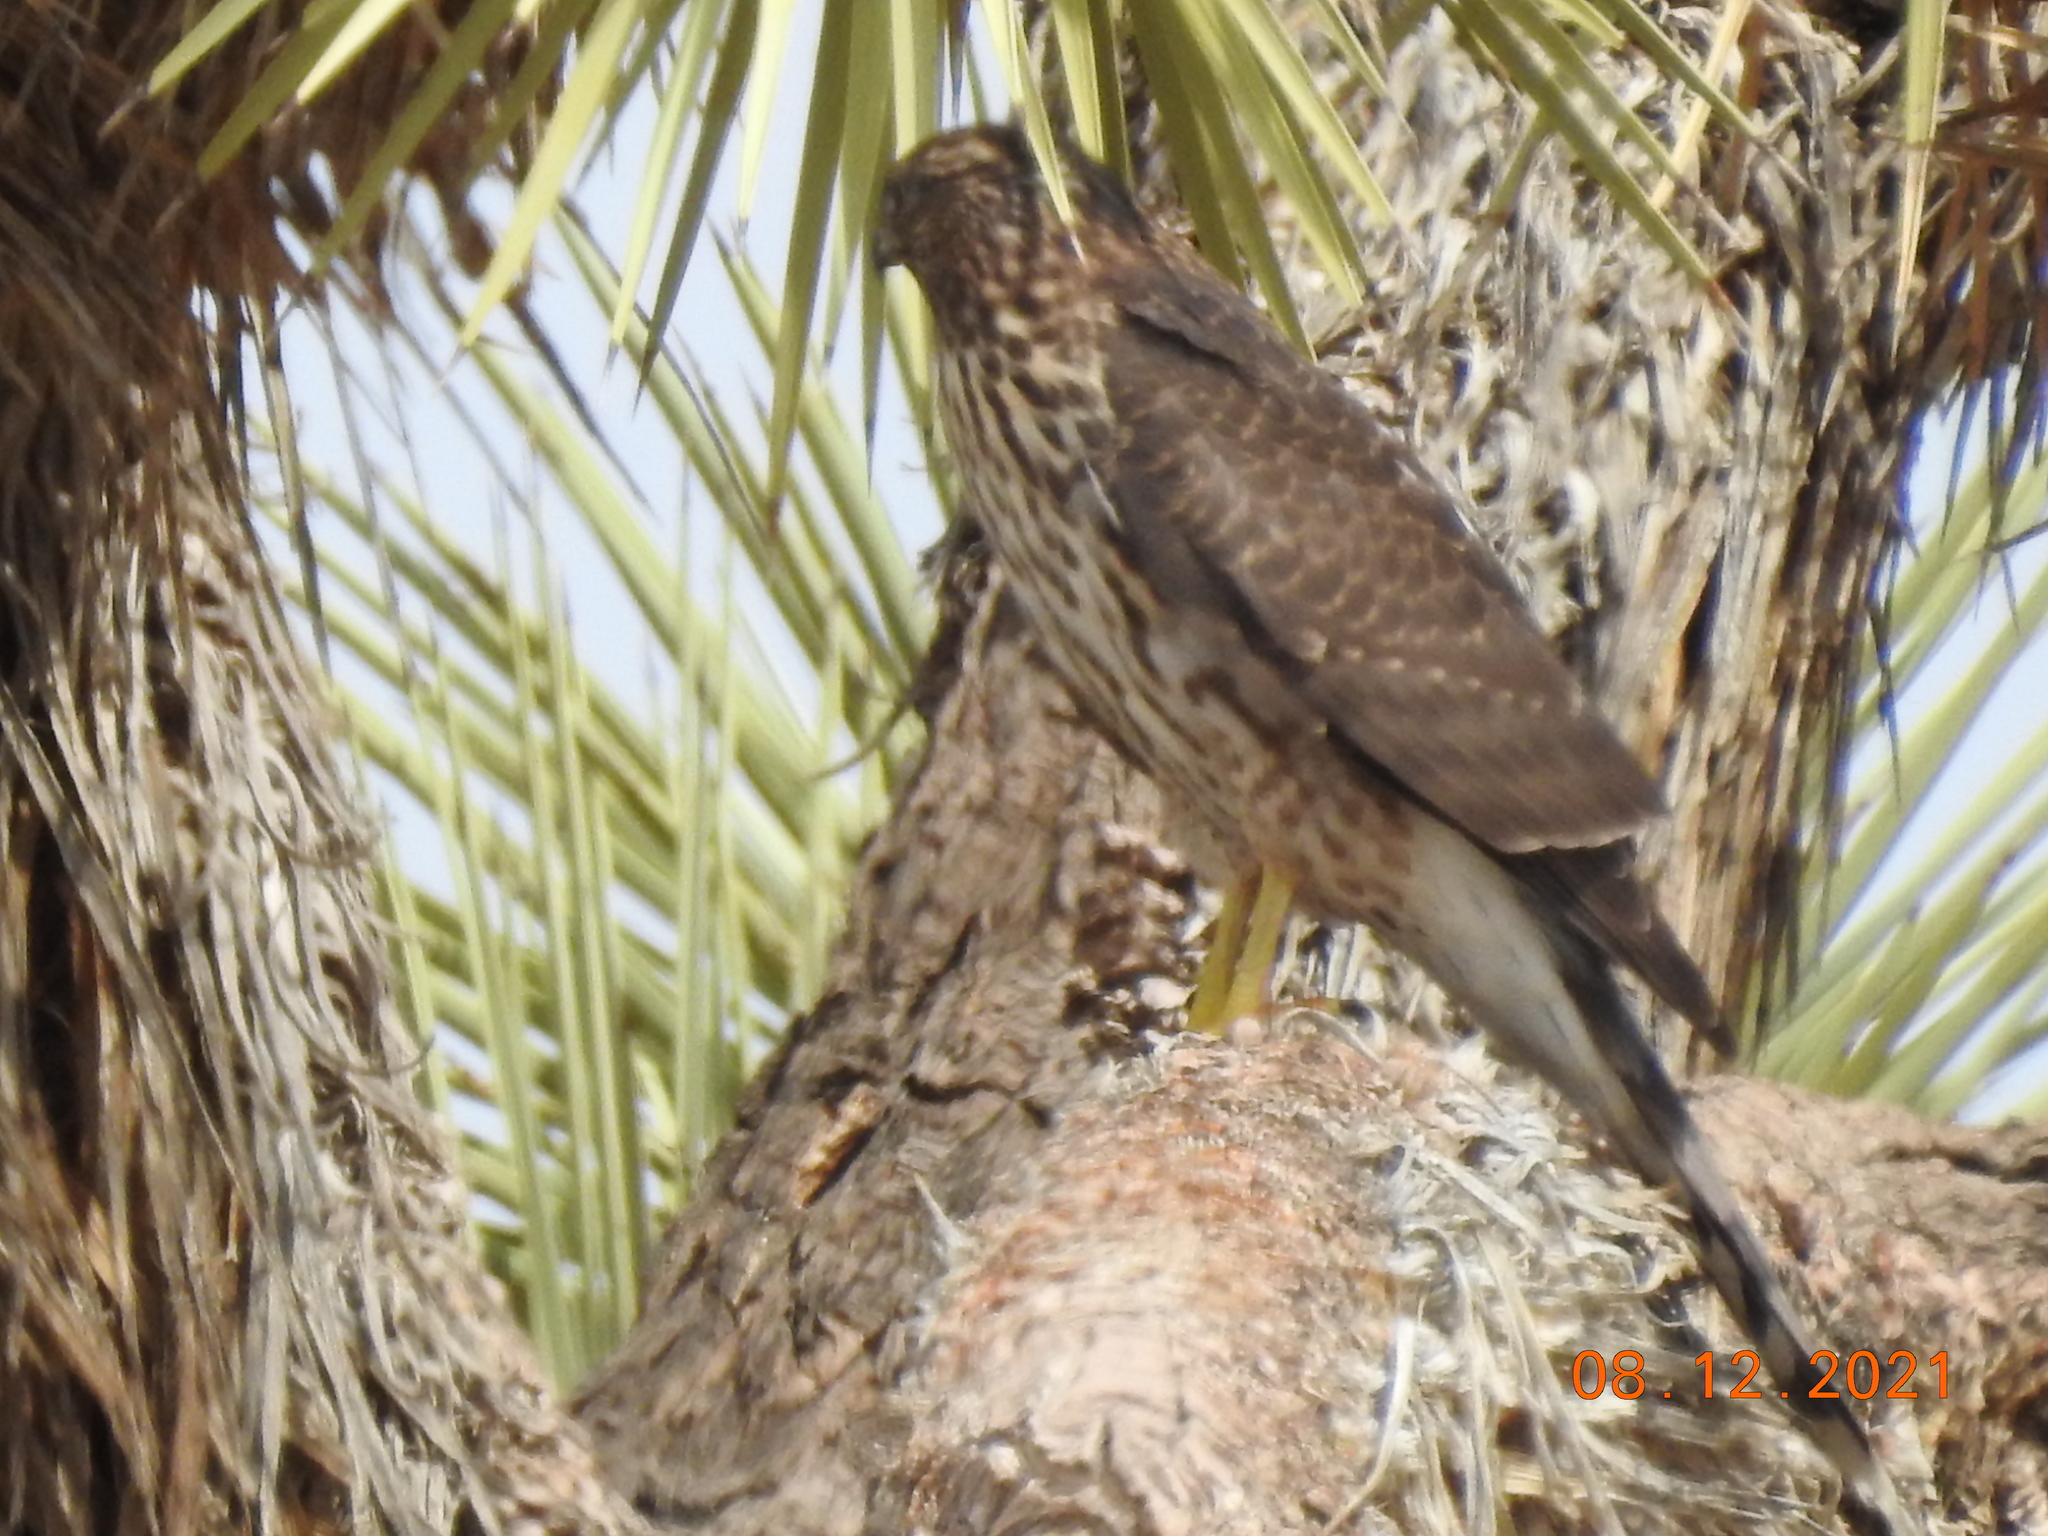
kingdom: Animalia
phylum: Chordata
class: Aves
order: Accipitriformes
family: Accipitridae
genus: Accipiter
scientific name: Accipiter cooperii
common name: Cooper's hawk
